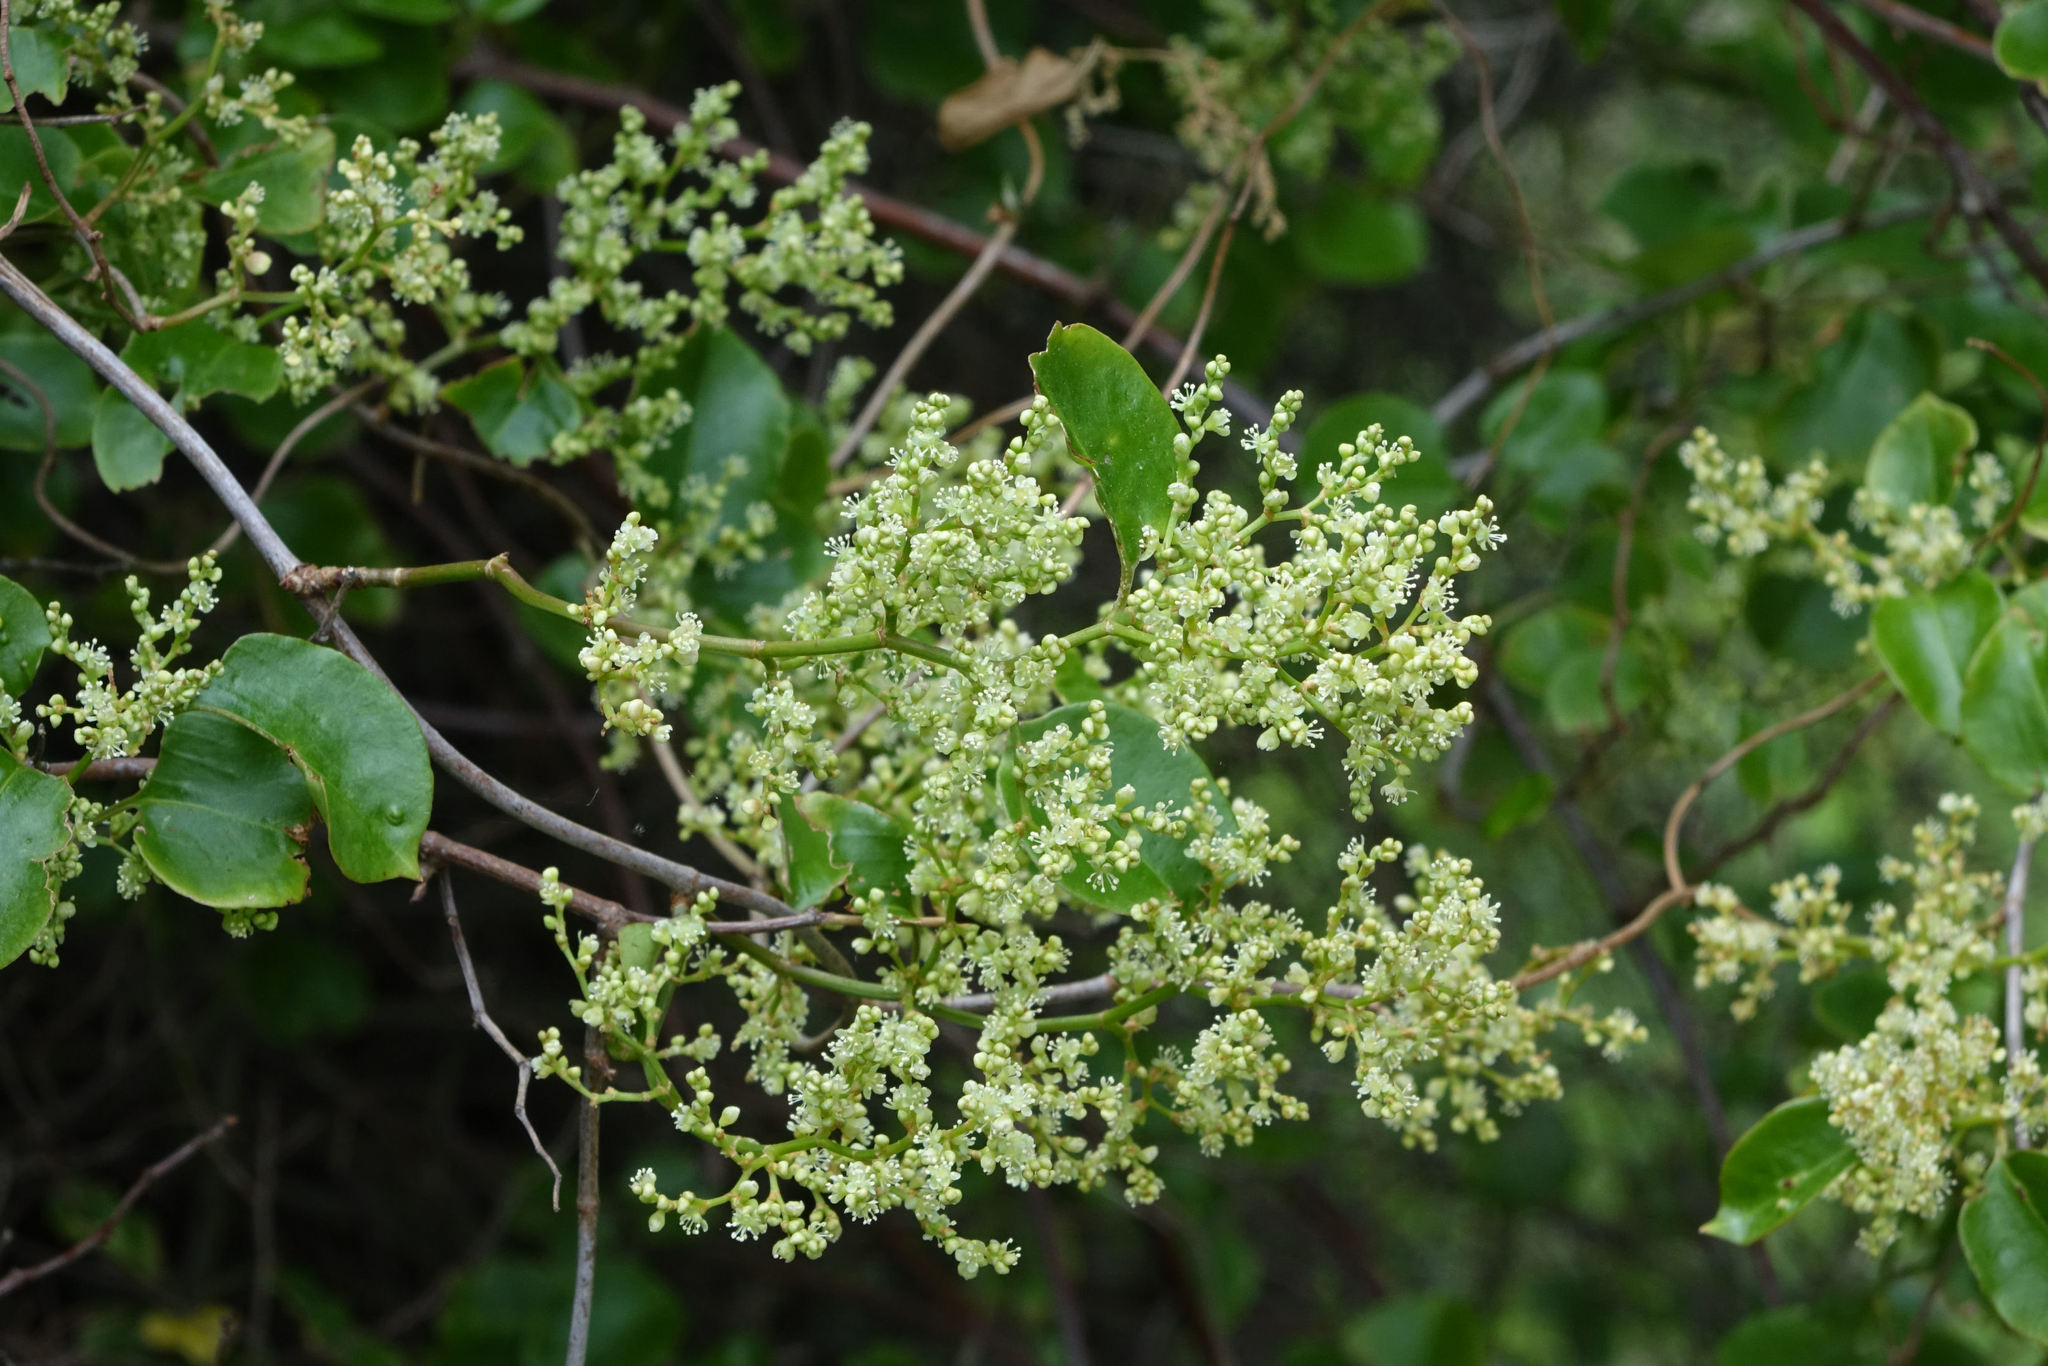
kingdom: Plantae
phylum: Tracheophyta
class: Magnoliopsida
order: Caryophyllales
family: Polygonaceae
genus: Muehlenbeckia
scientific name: Muehlenbeckia australis
